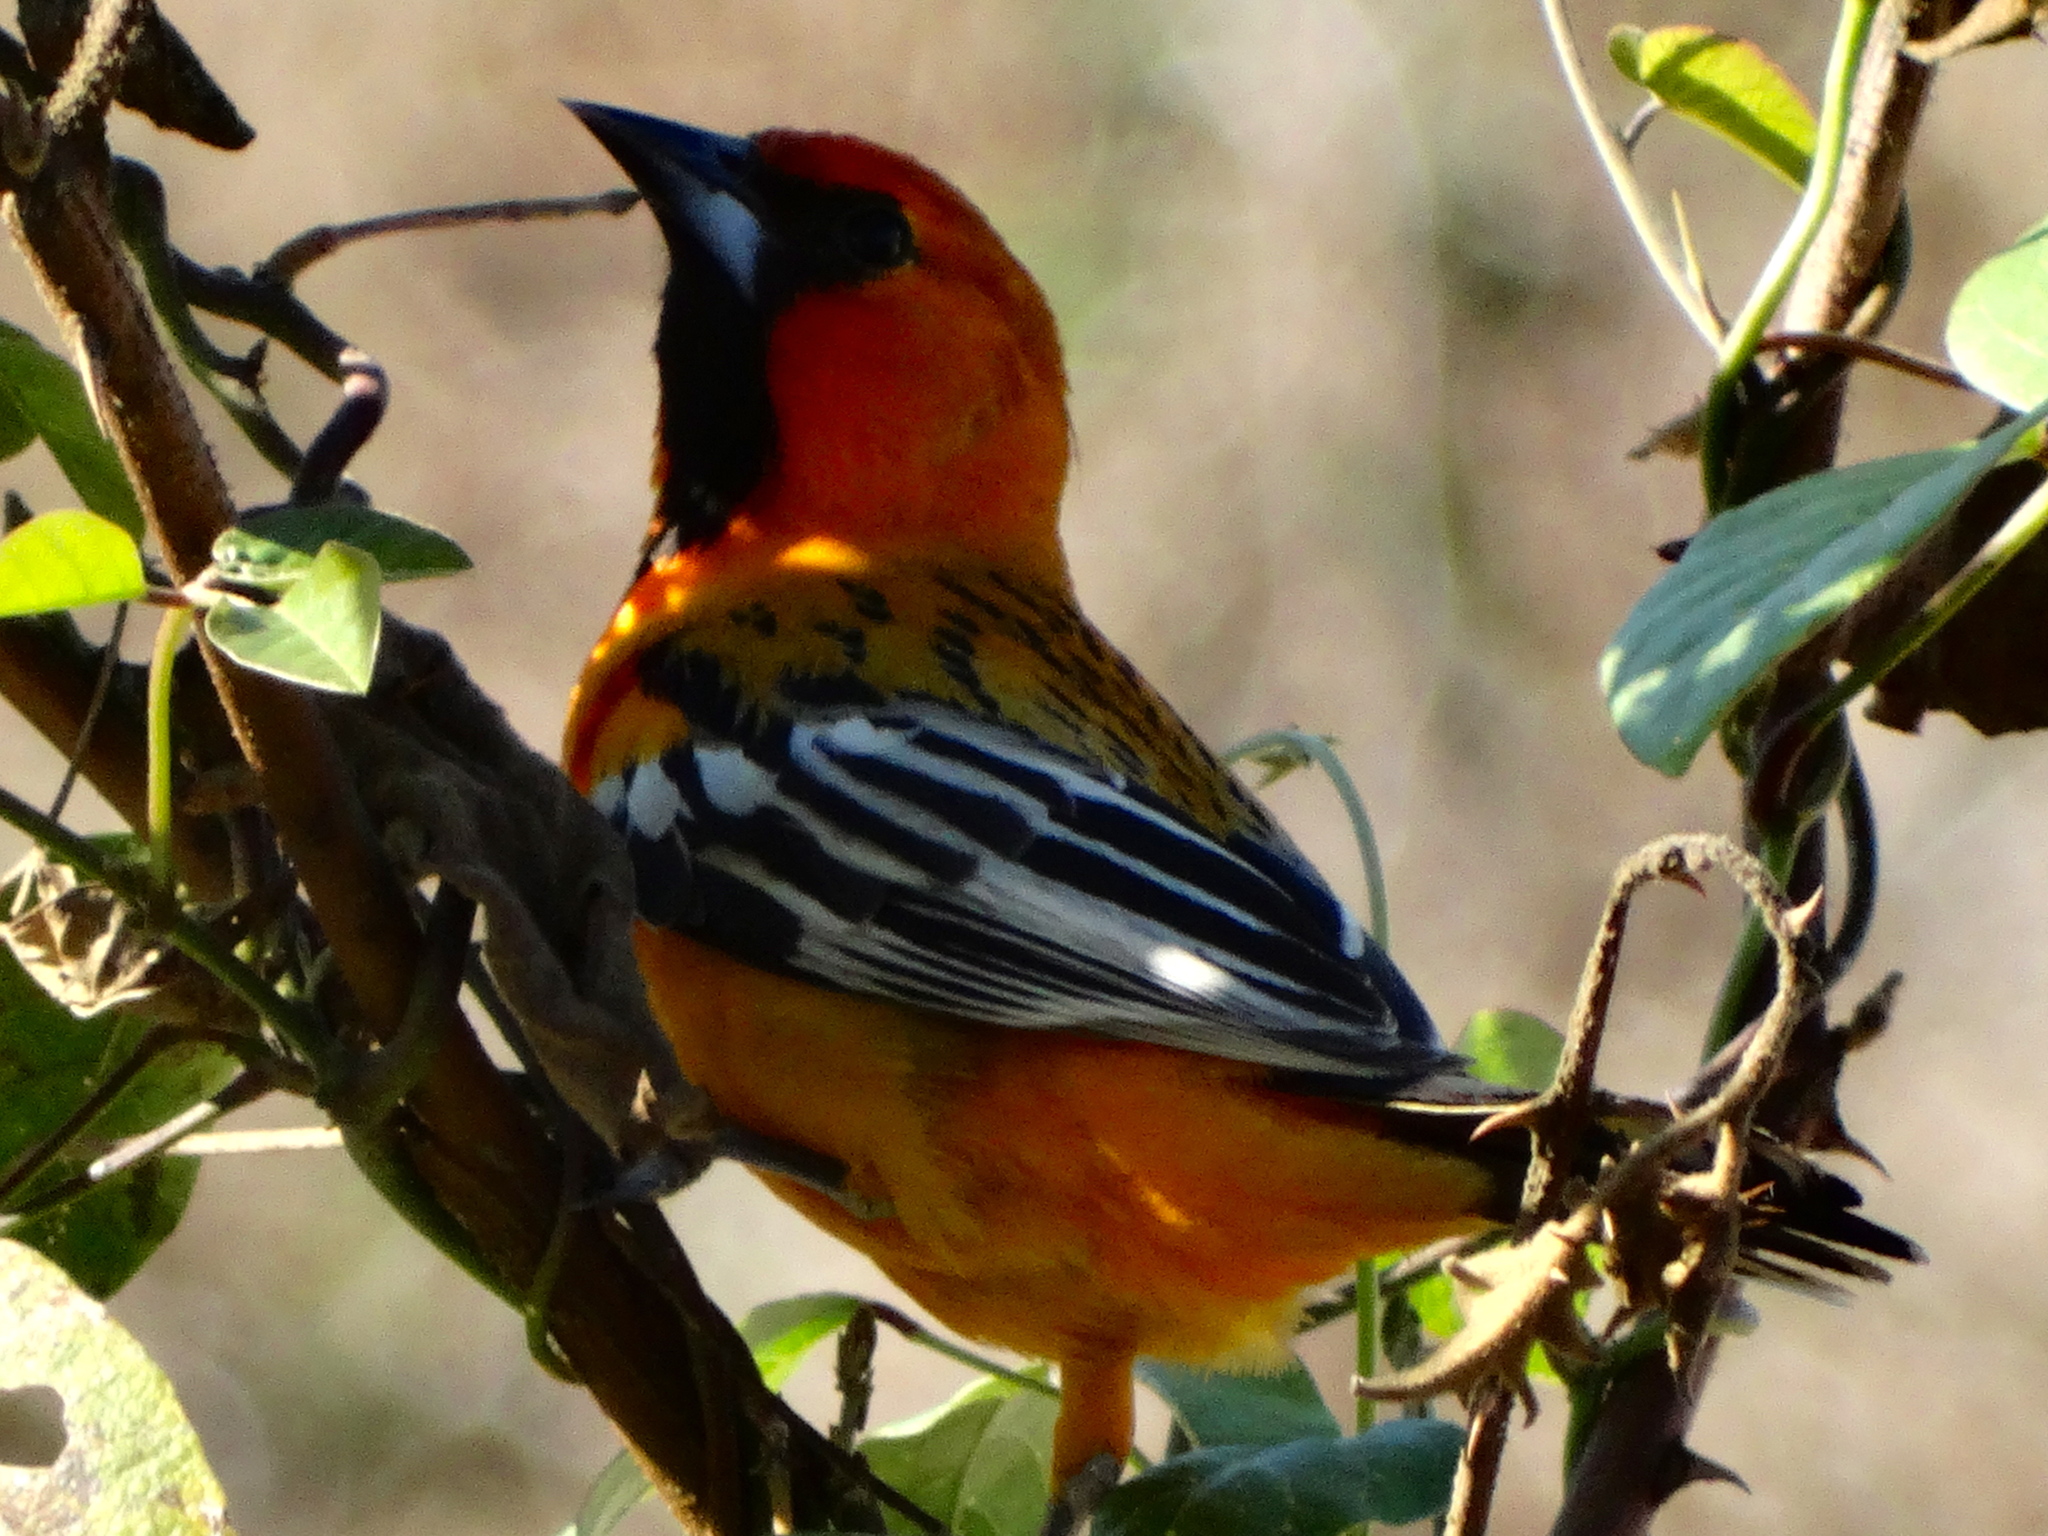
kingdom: Animalia
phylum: Chordata
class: Aves
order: Passeriformes
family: Icteridae
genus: Icterus
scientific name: Icterus pustulatus
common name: Streak-backed oriole
